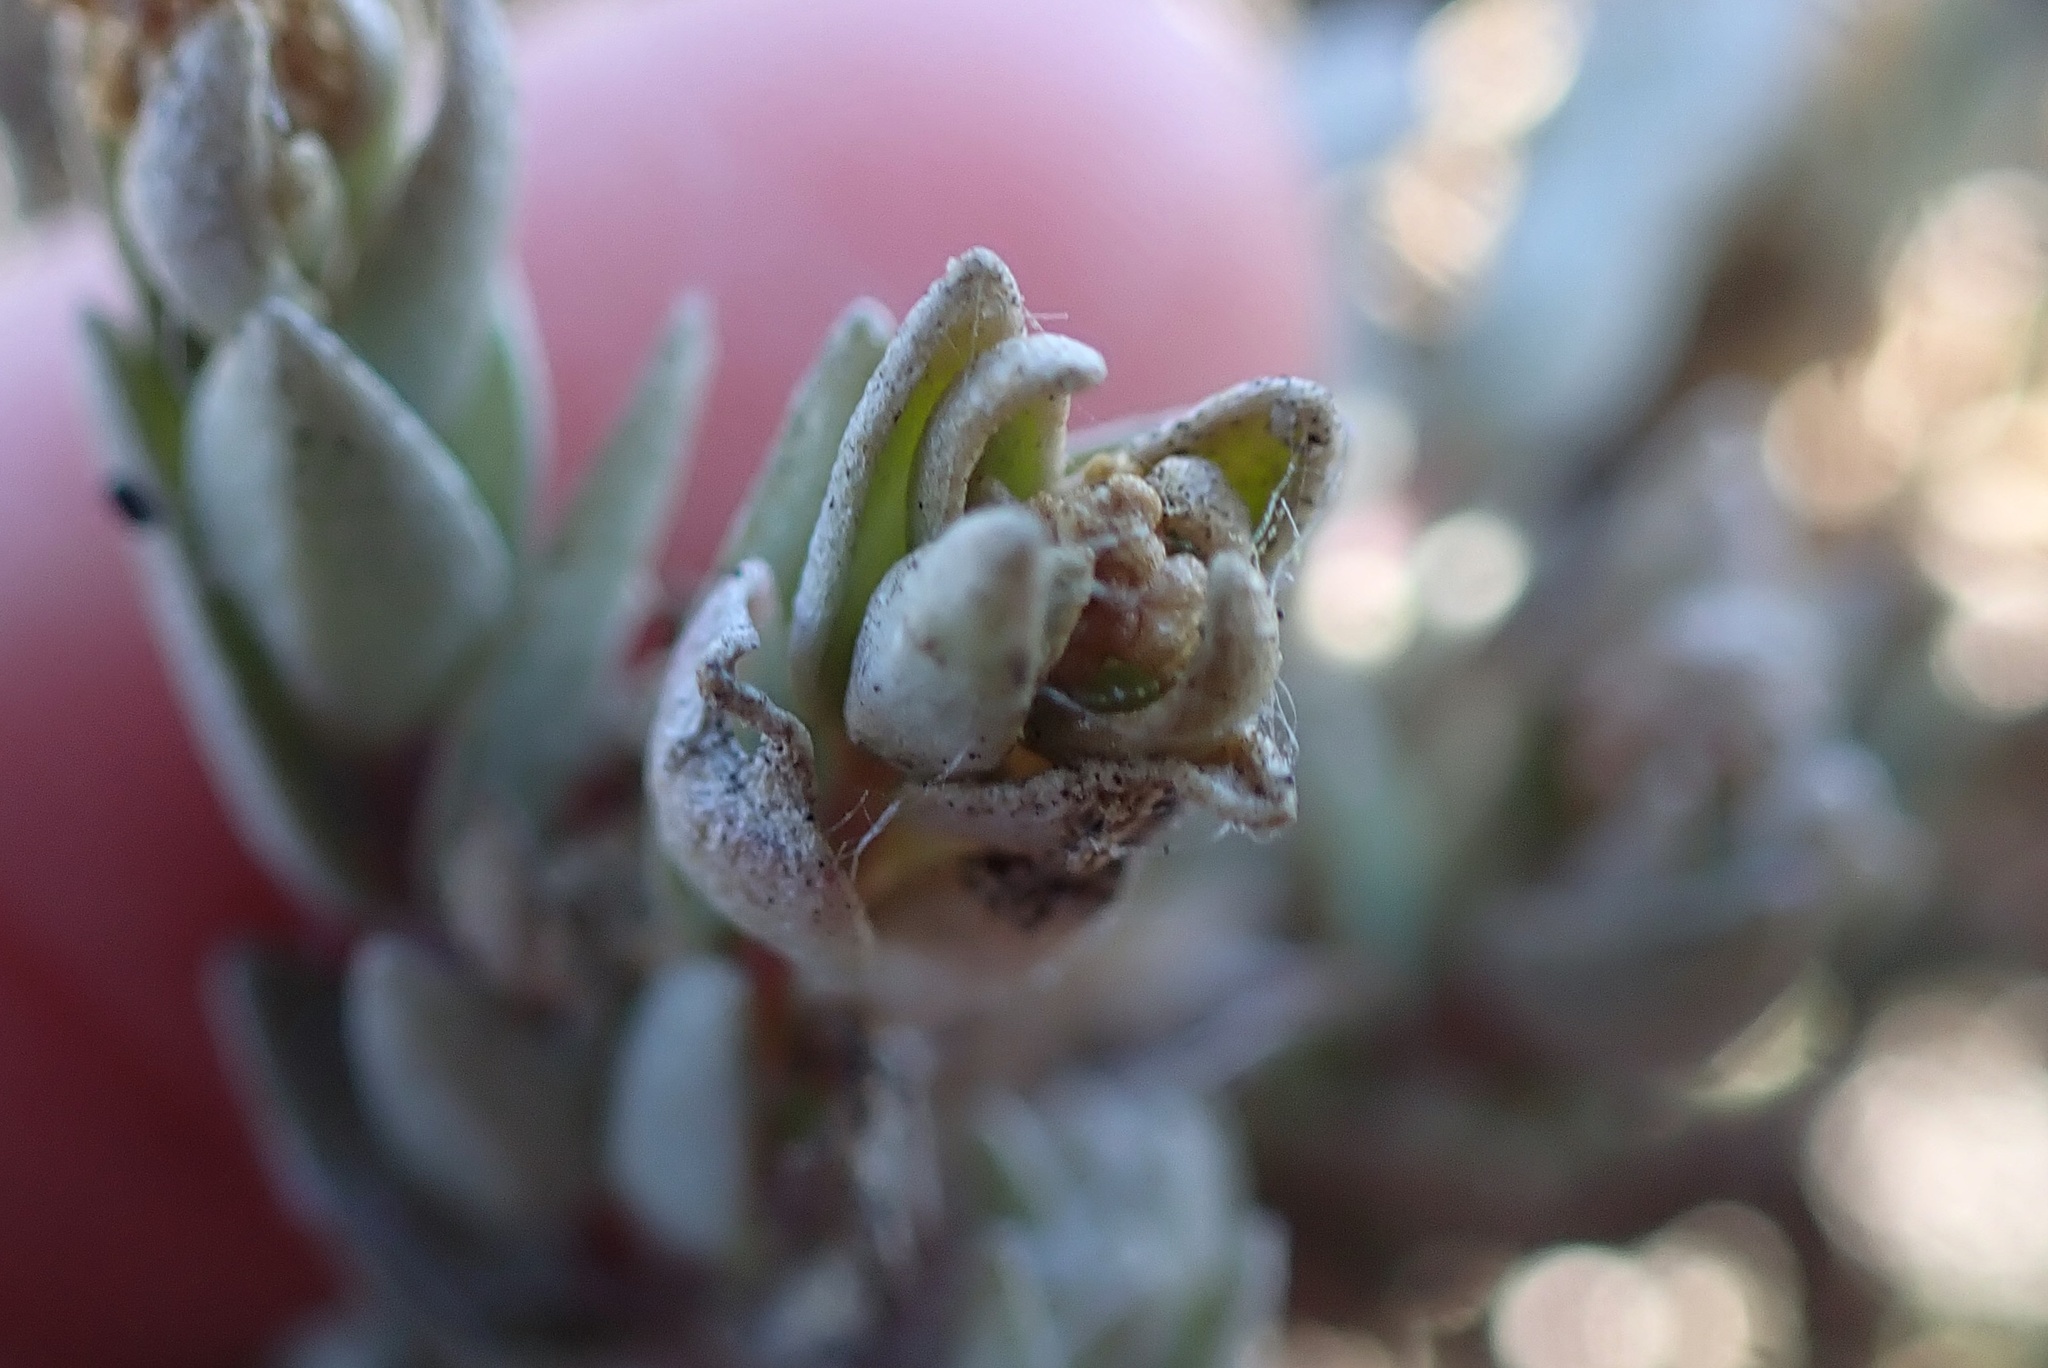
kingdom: Plantae
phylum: Tracheophyta
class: Magnoliopsida
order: Caryophyllales
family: Amaranthaceae
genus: Atriplex
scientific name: Atriplex watsonii
